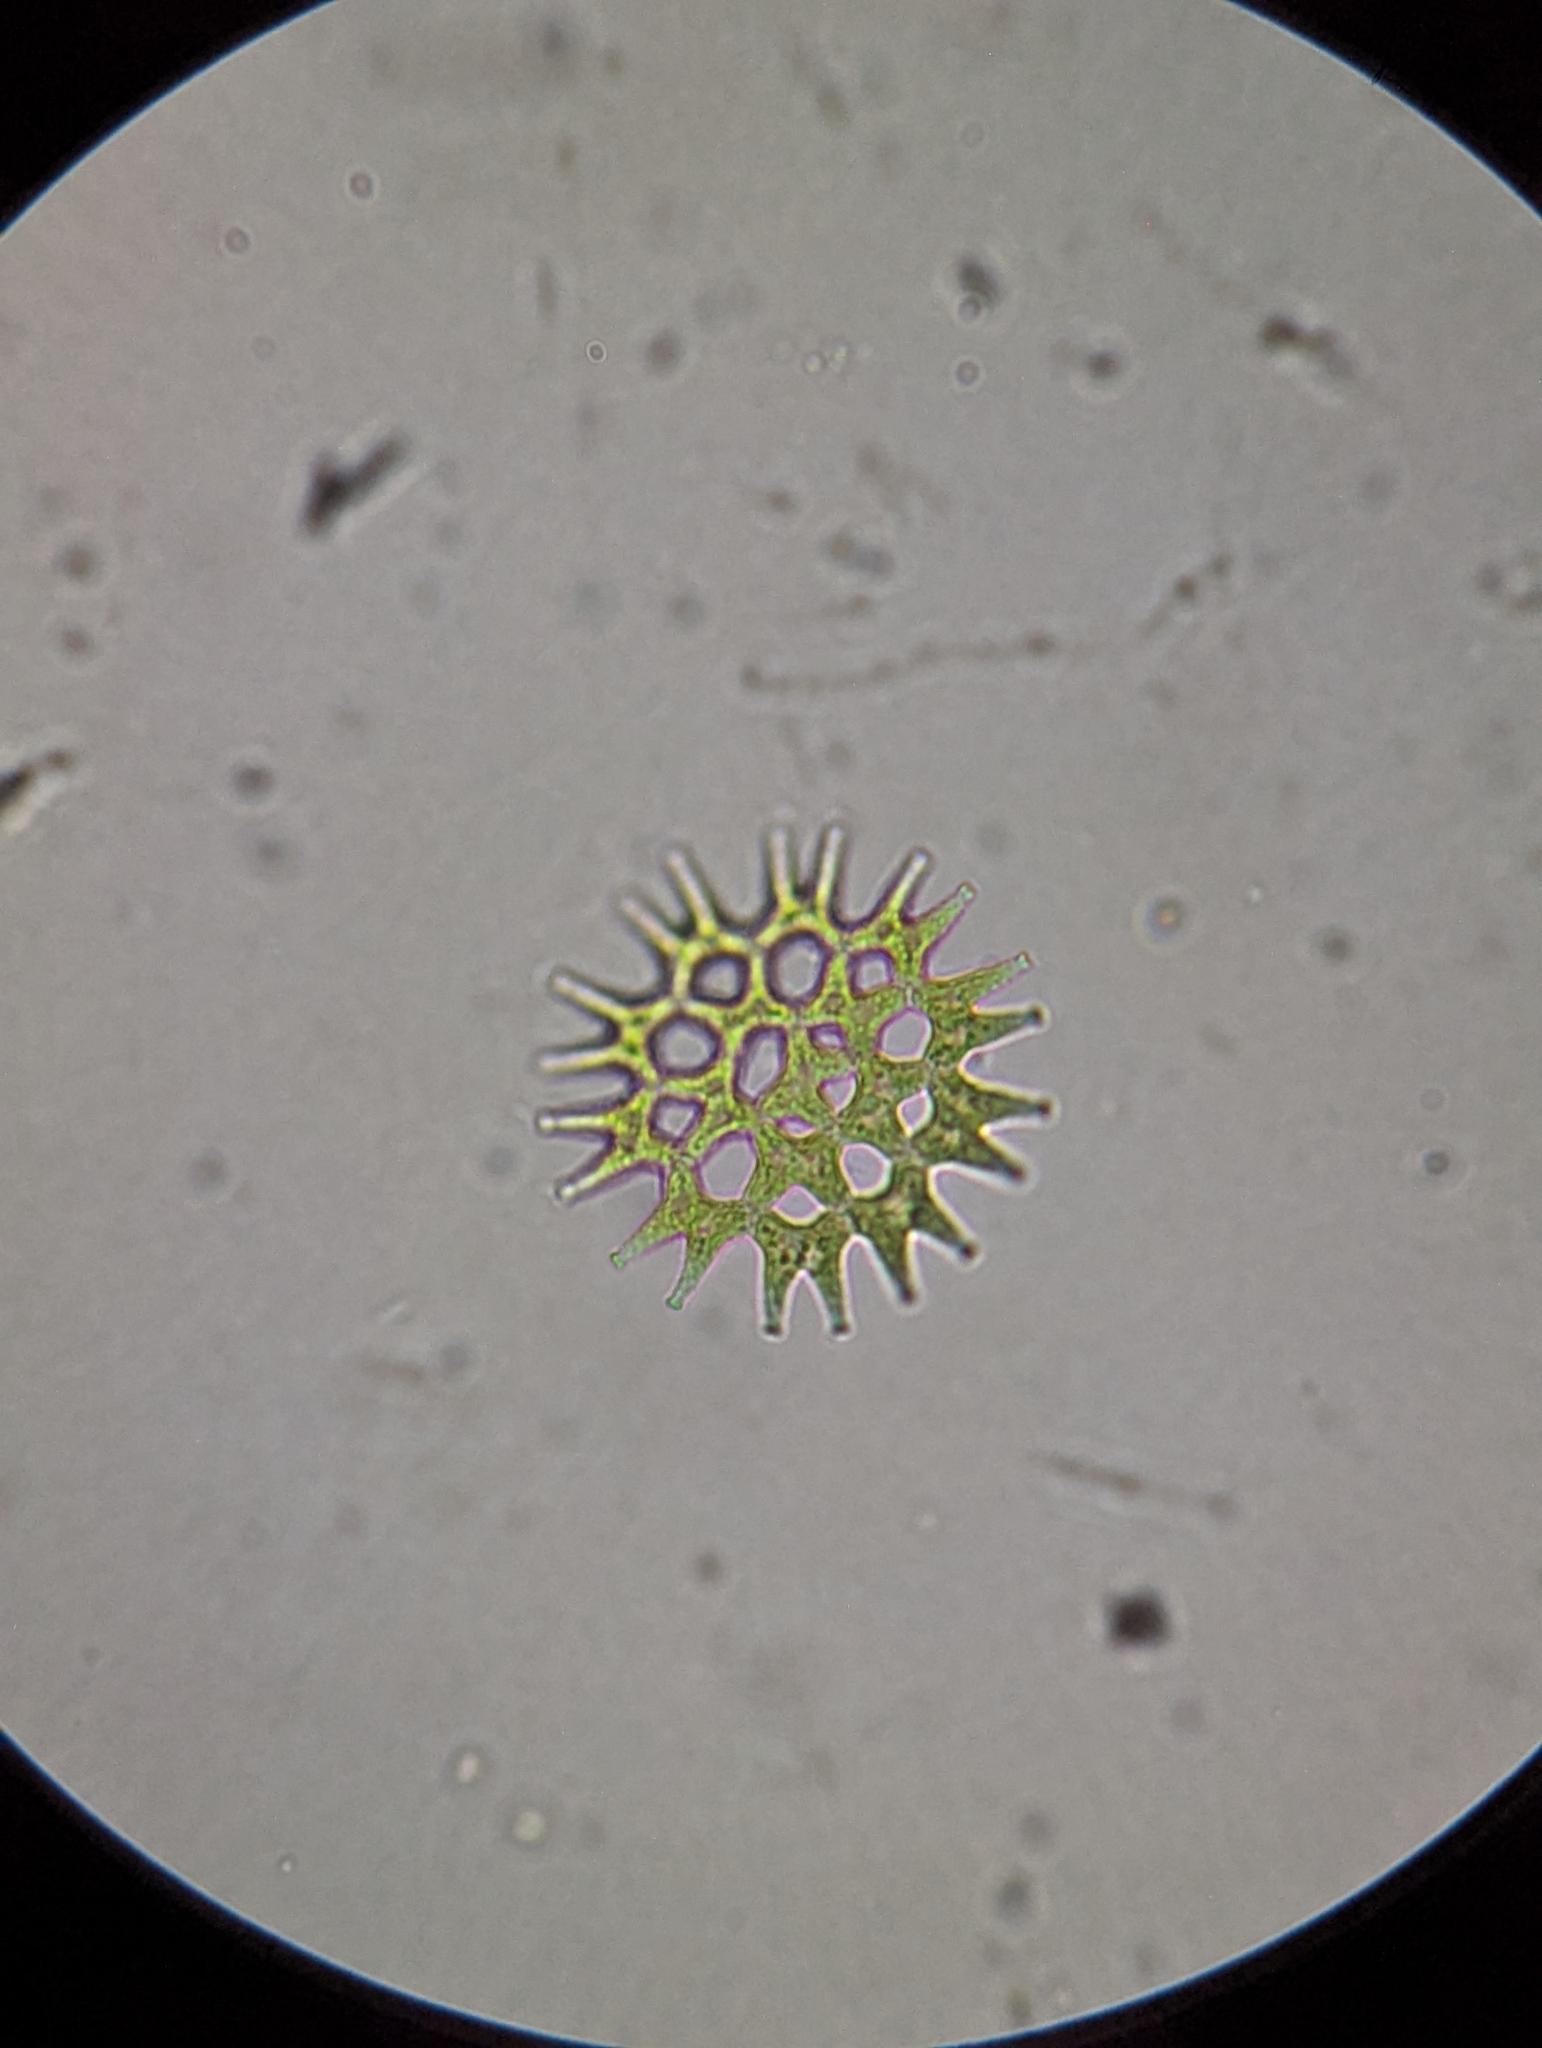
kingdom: Plantae
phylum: Chlorophyta
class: Chlorophyceae
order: Sphaeropleales
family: Hydrodictyaceae
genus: Pediastrum
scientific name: Pediastrum duplex
